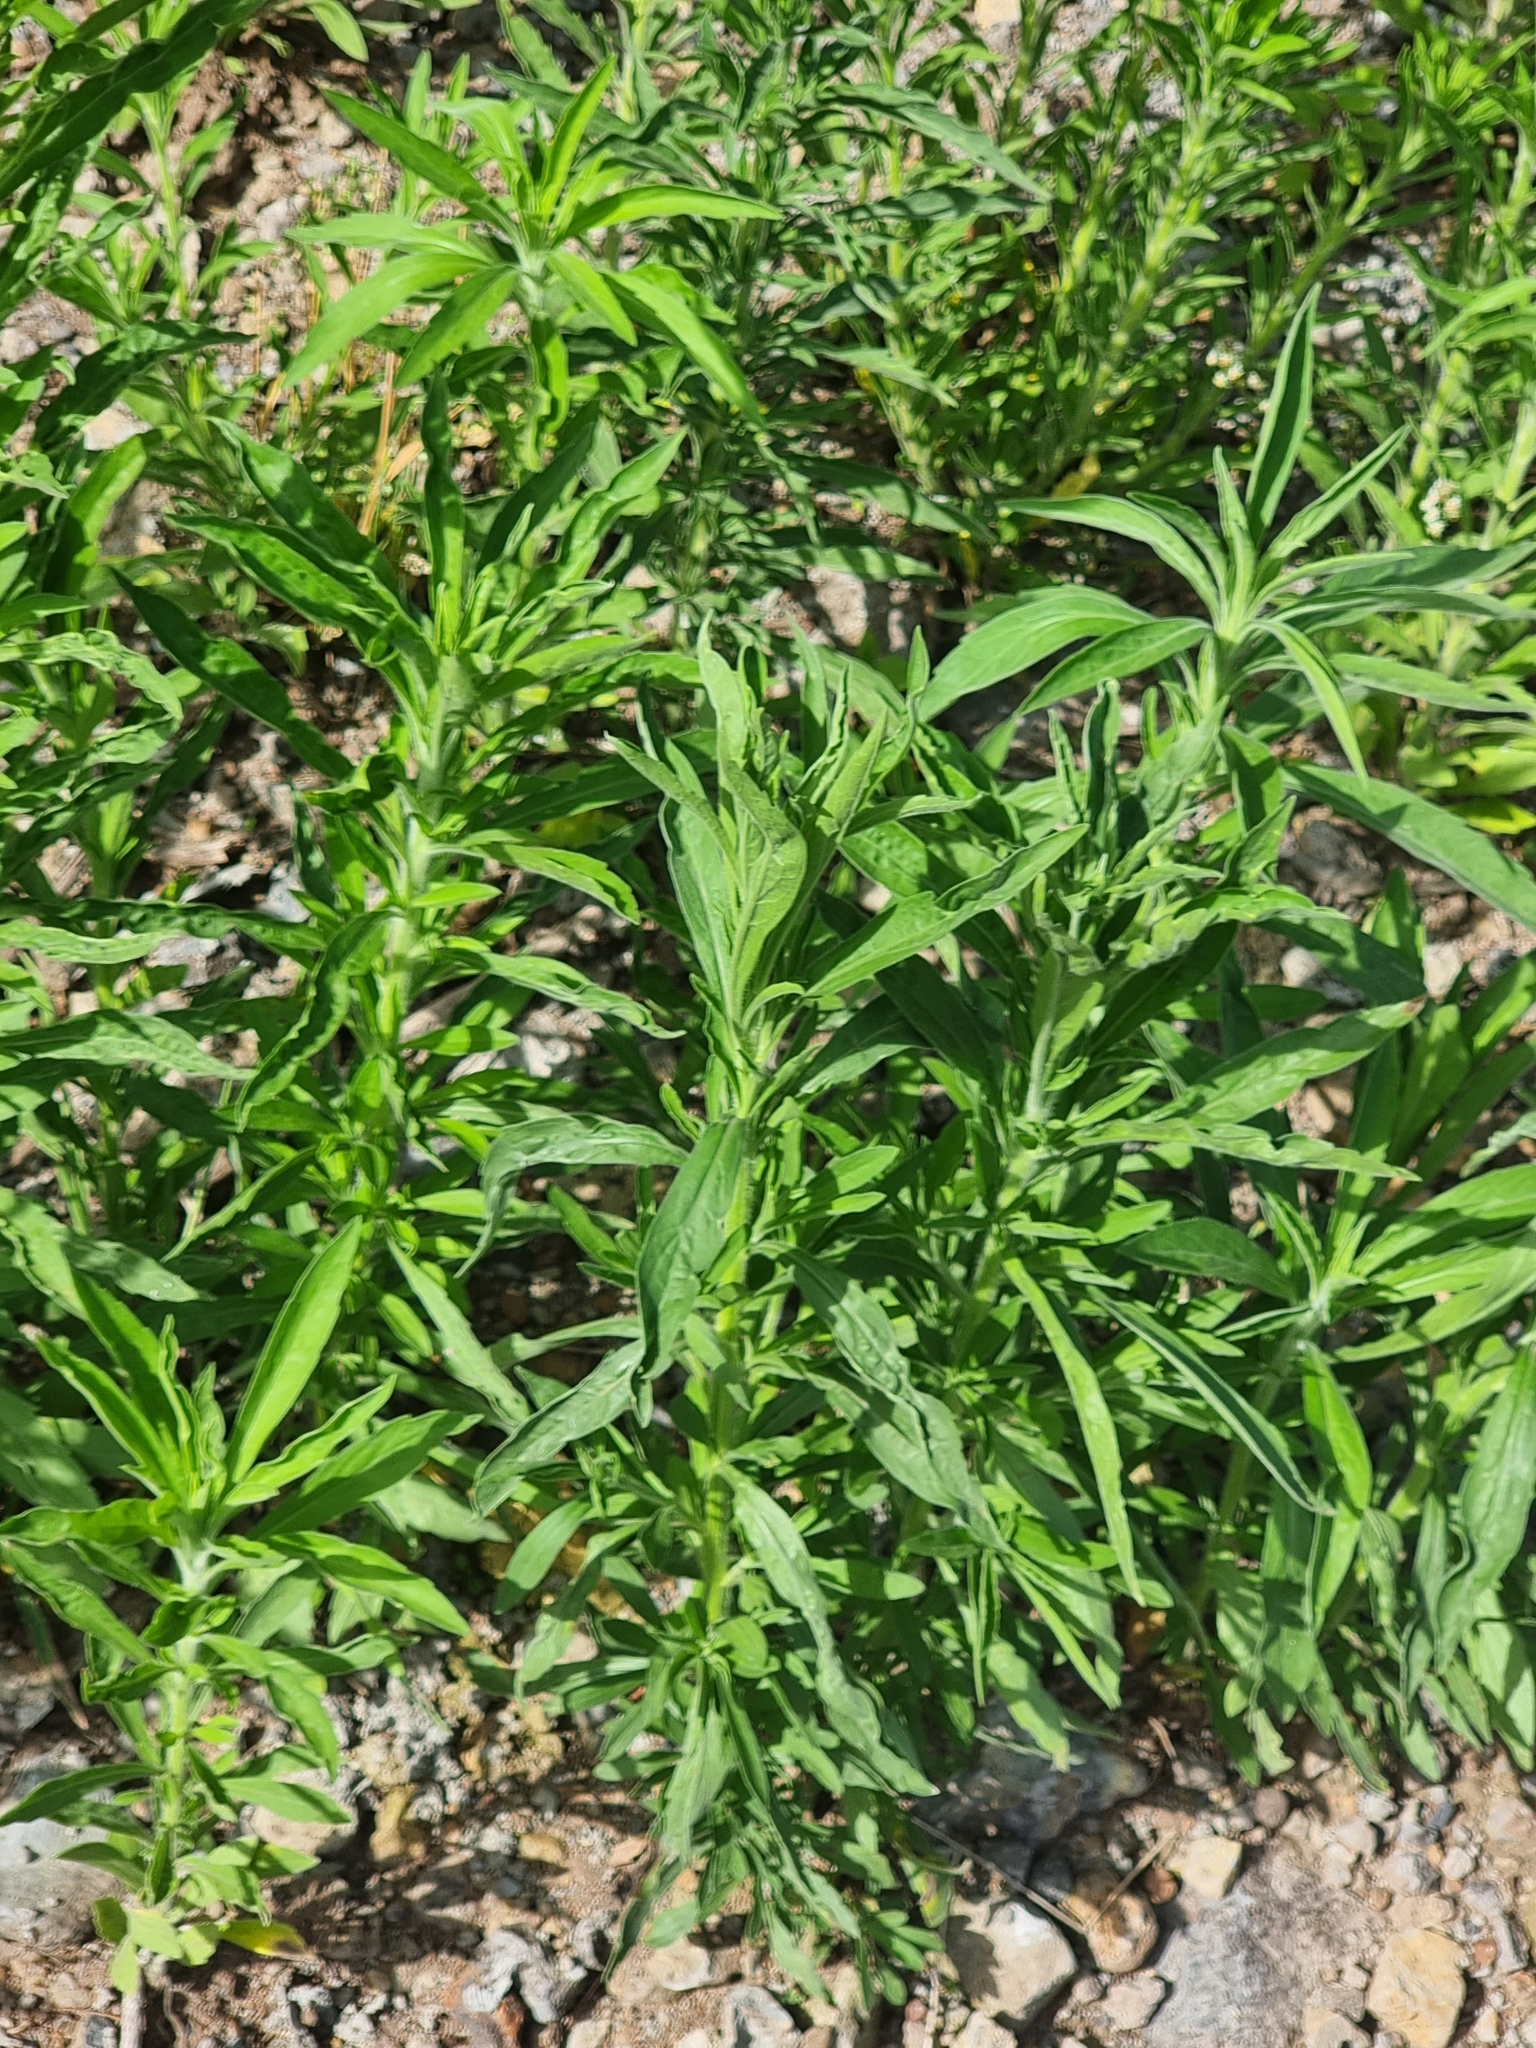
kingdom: Plantae
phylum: Tracheophyta
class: Magnoliopsida
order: Asterales
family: Asteraceae
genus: Erigeron
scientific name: Erigeron sumatrensis
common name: Daisy
